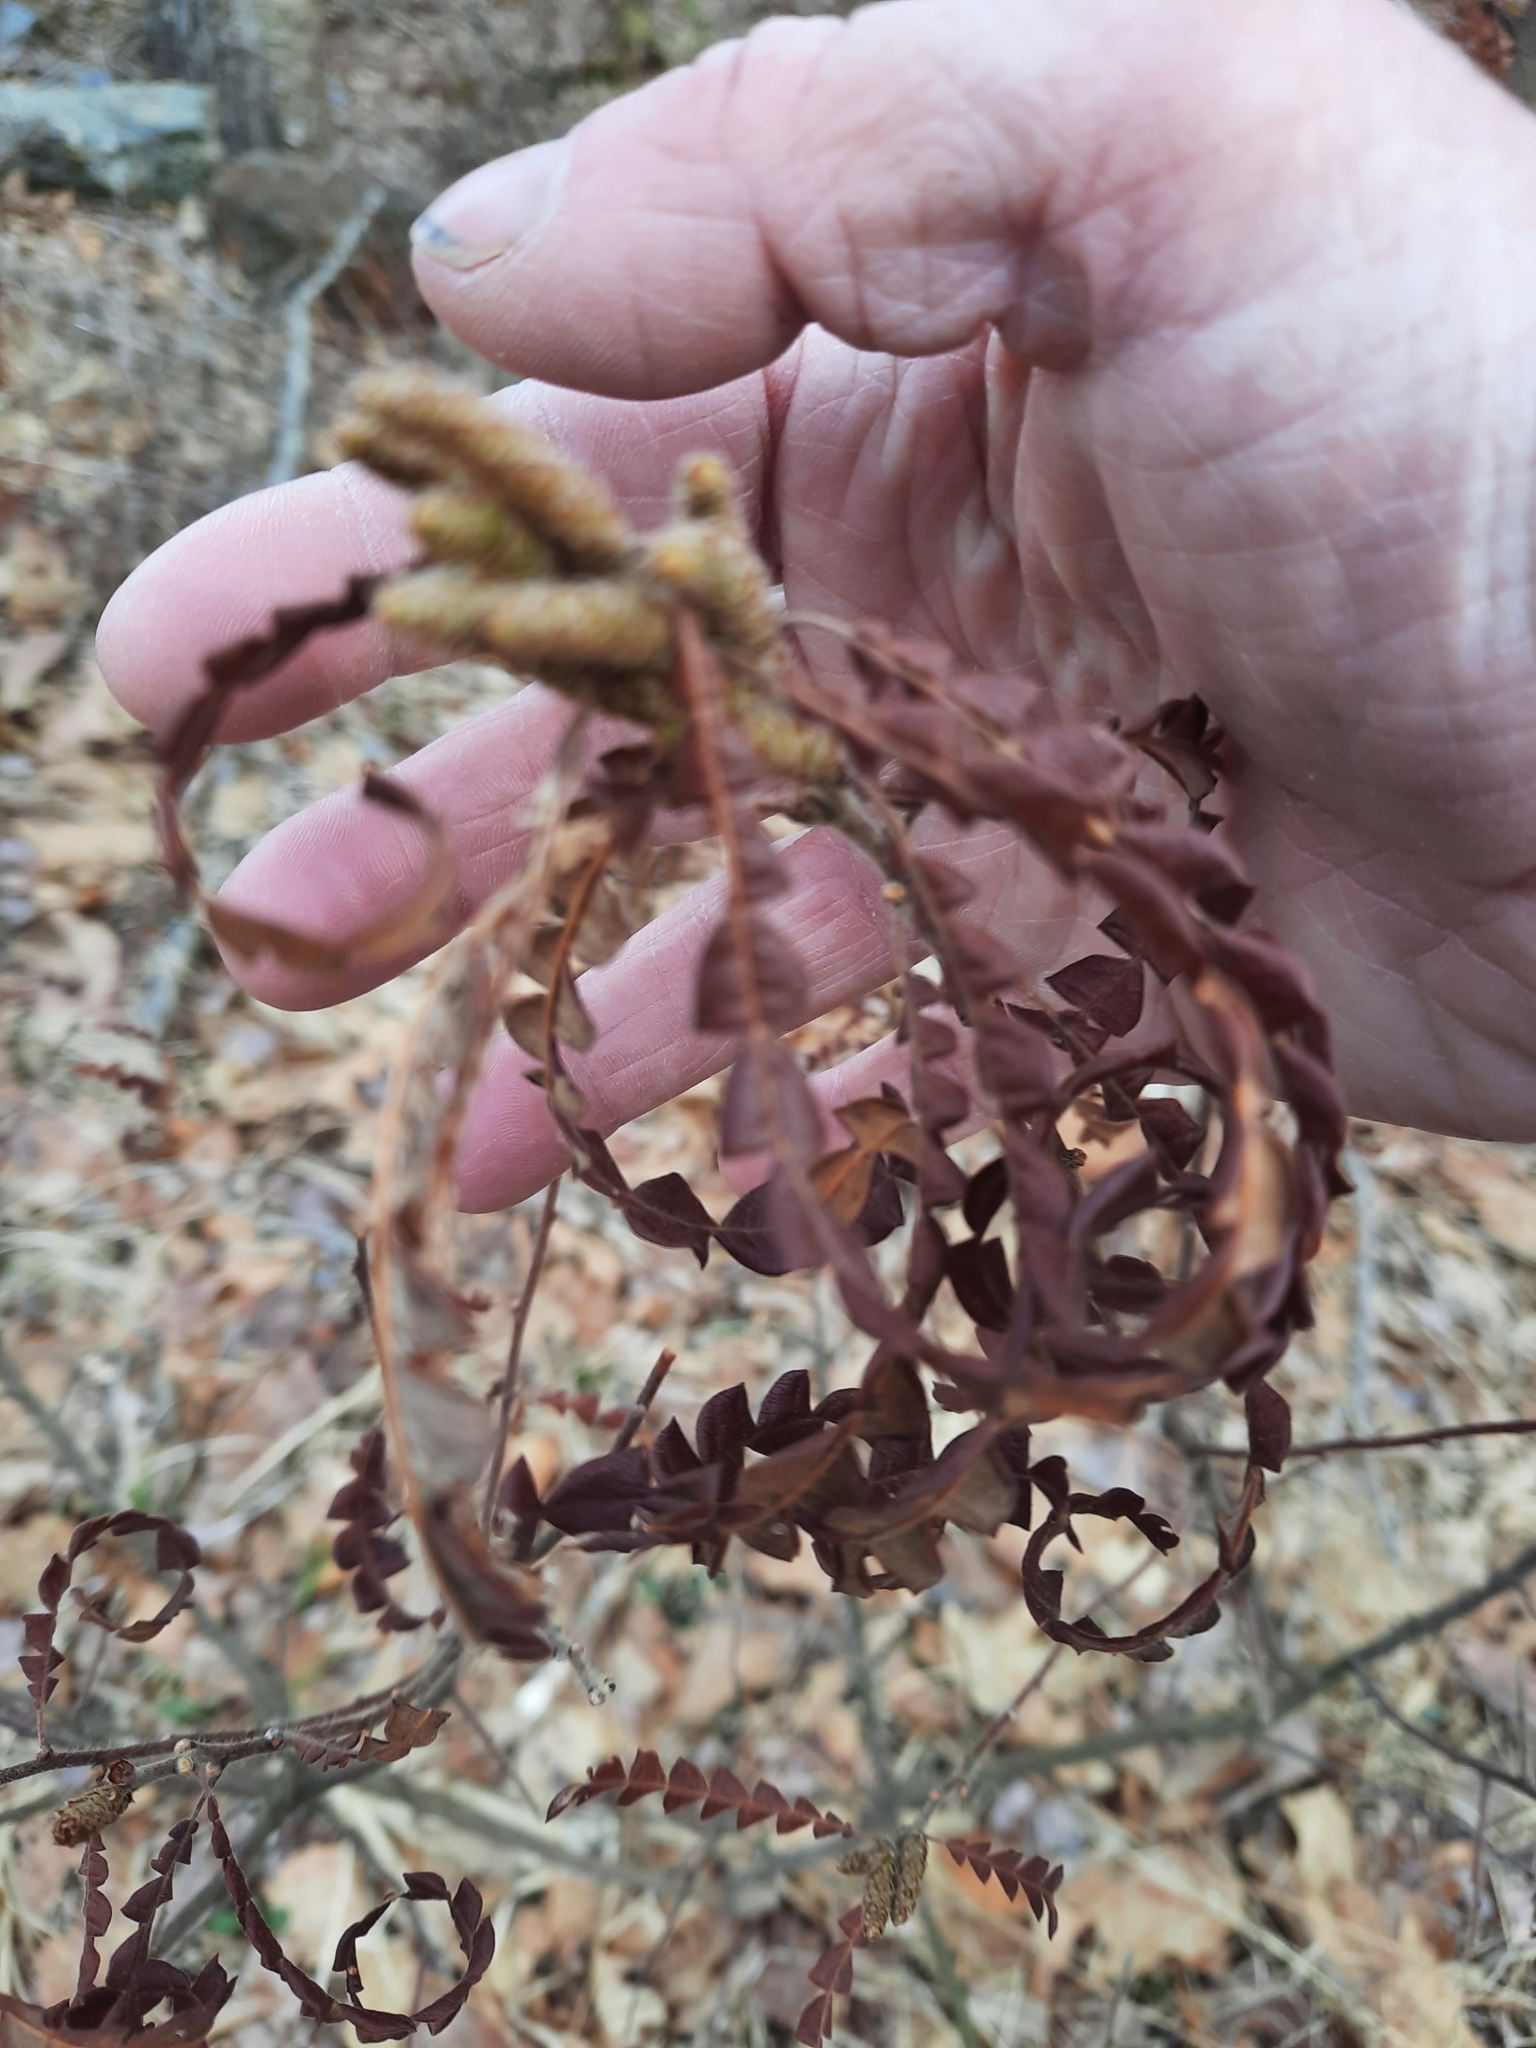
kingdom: Plantae
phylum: Tracheophyta
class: Magnoliopsida
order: Fagales
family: Myricaceae
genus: Comptonia
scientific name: Comptonia peregrina
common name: Sweet-fern
